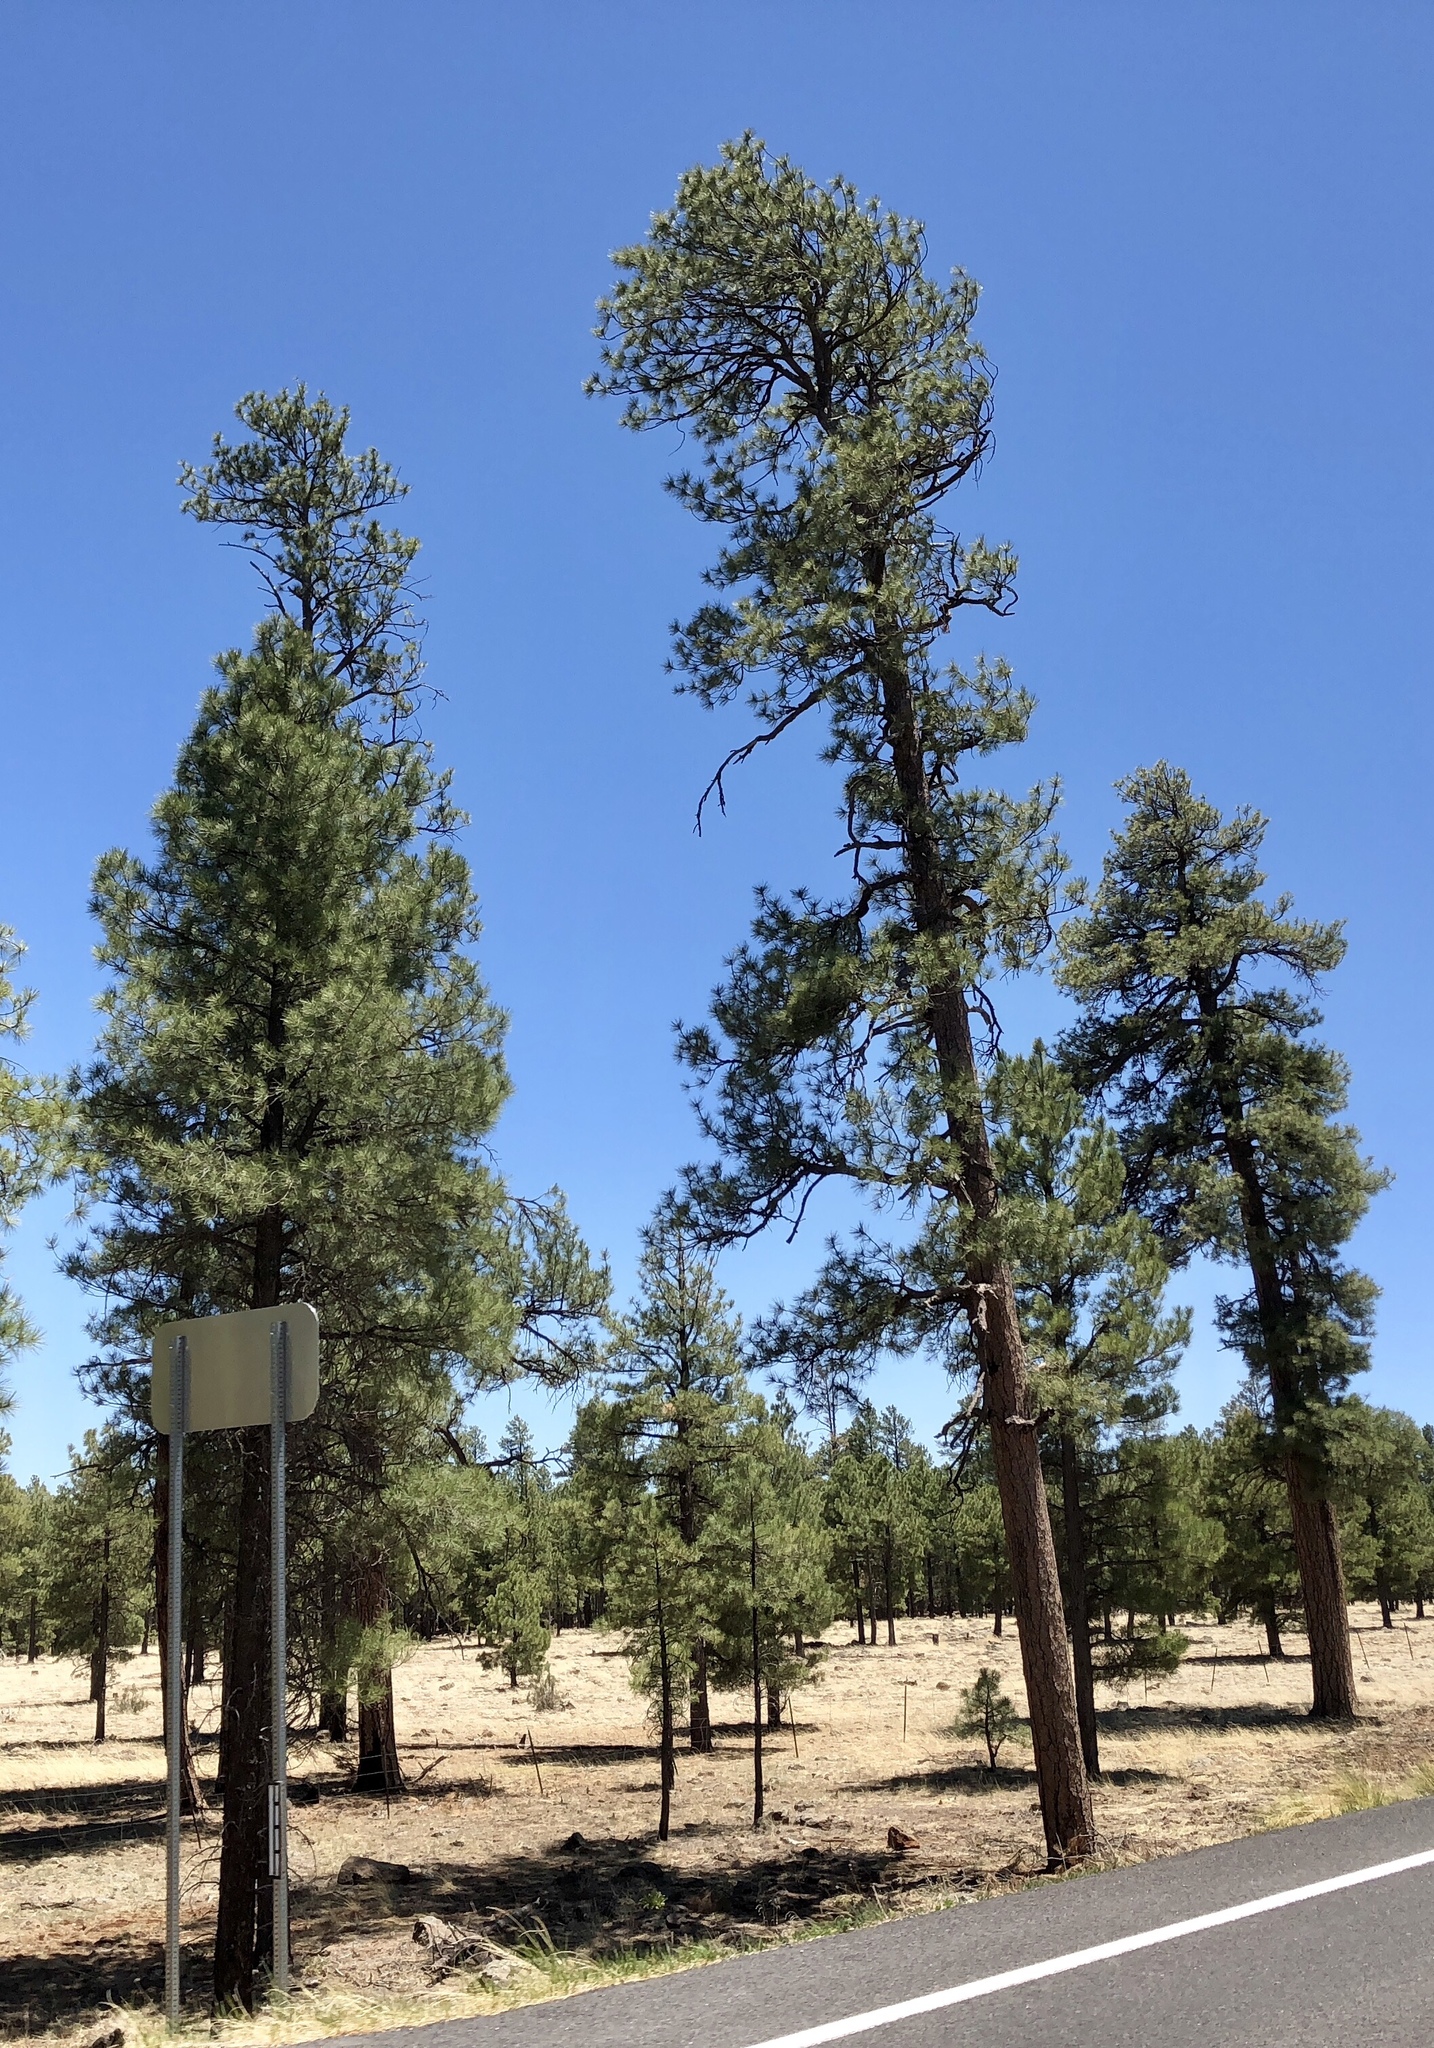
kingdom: Plantae
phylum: Tracheophyta
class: Pinopsida
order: Pinales
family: Pinaceae
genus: Pinus
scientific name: Pinus ponderosa
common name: Western yellow-pine
